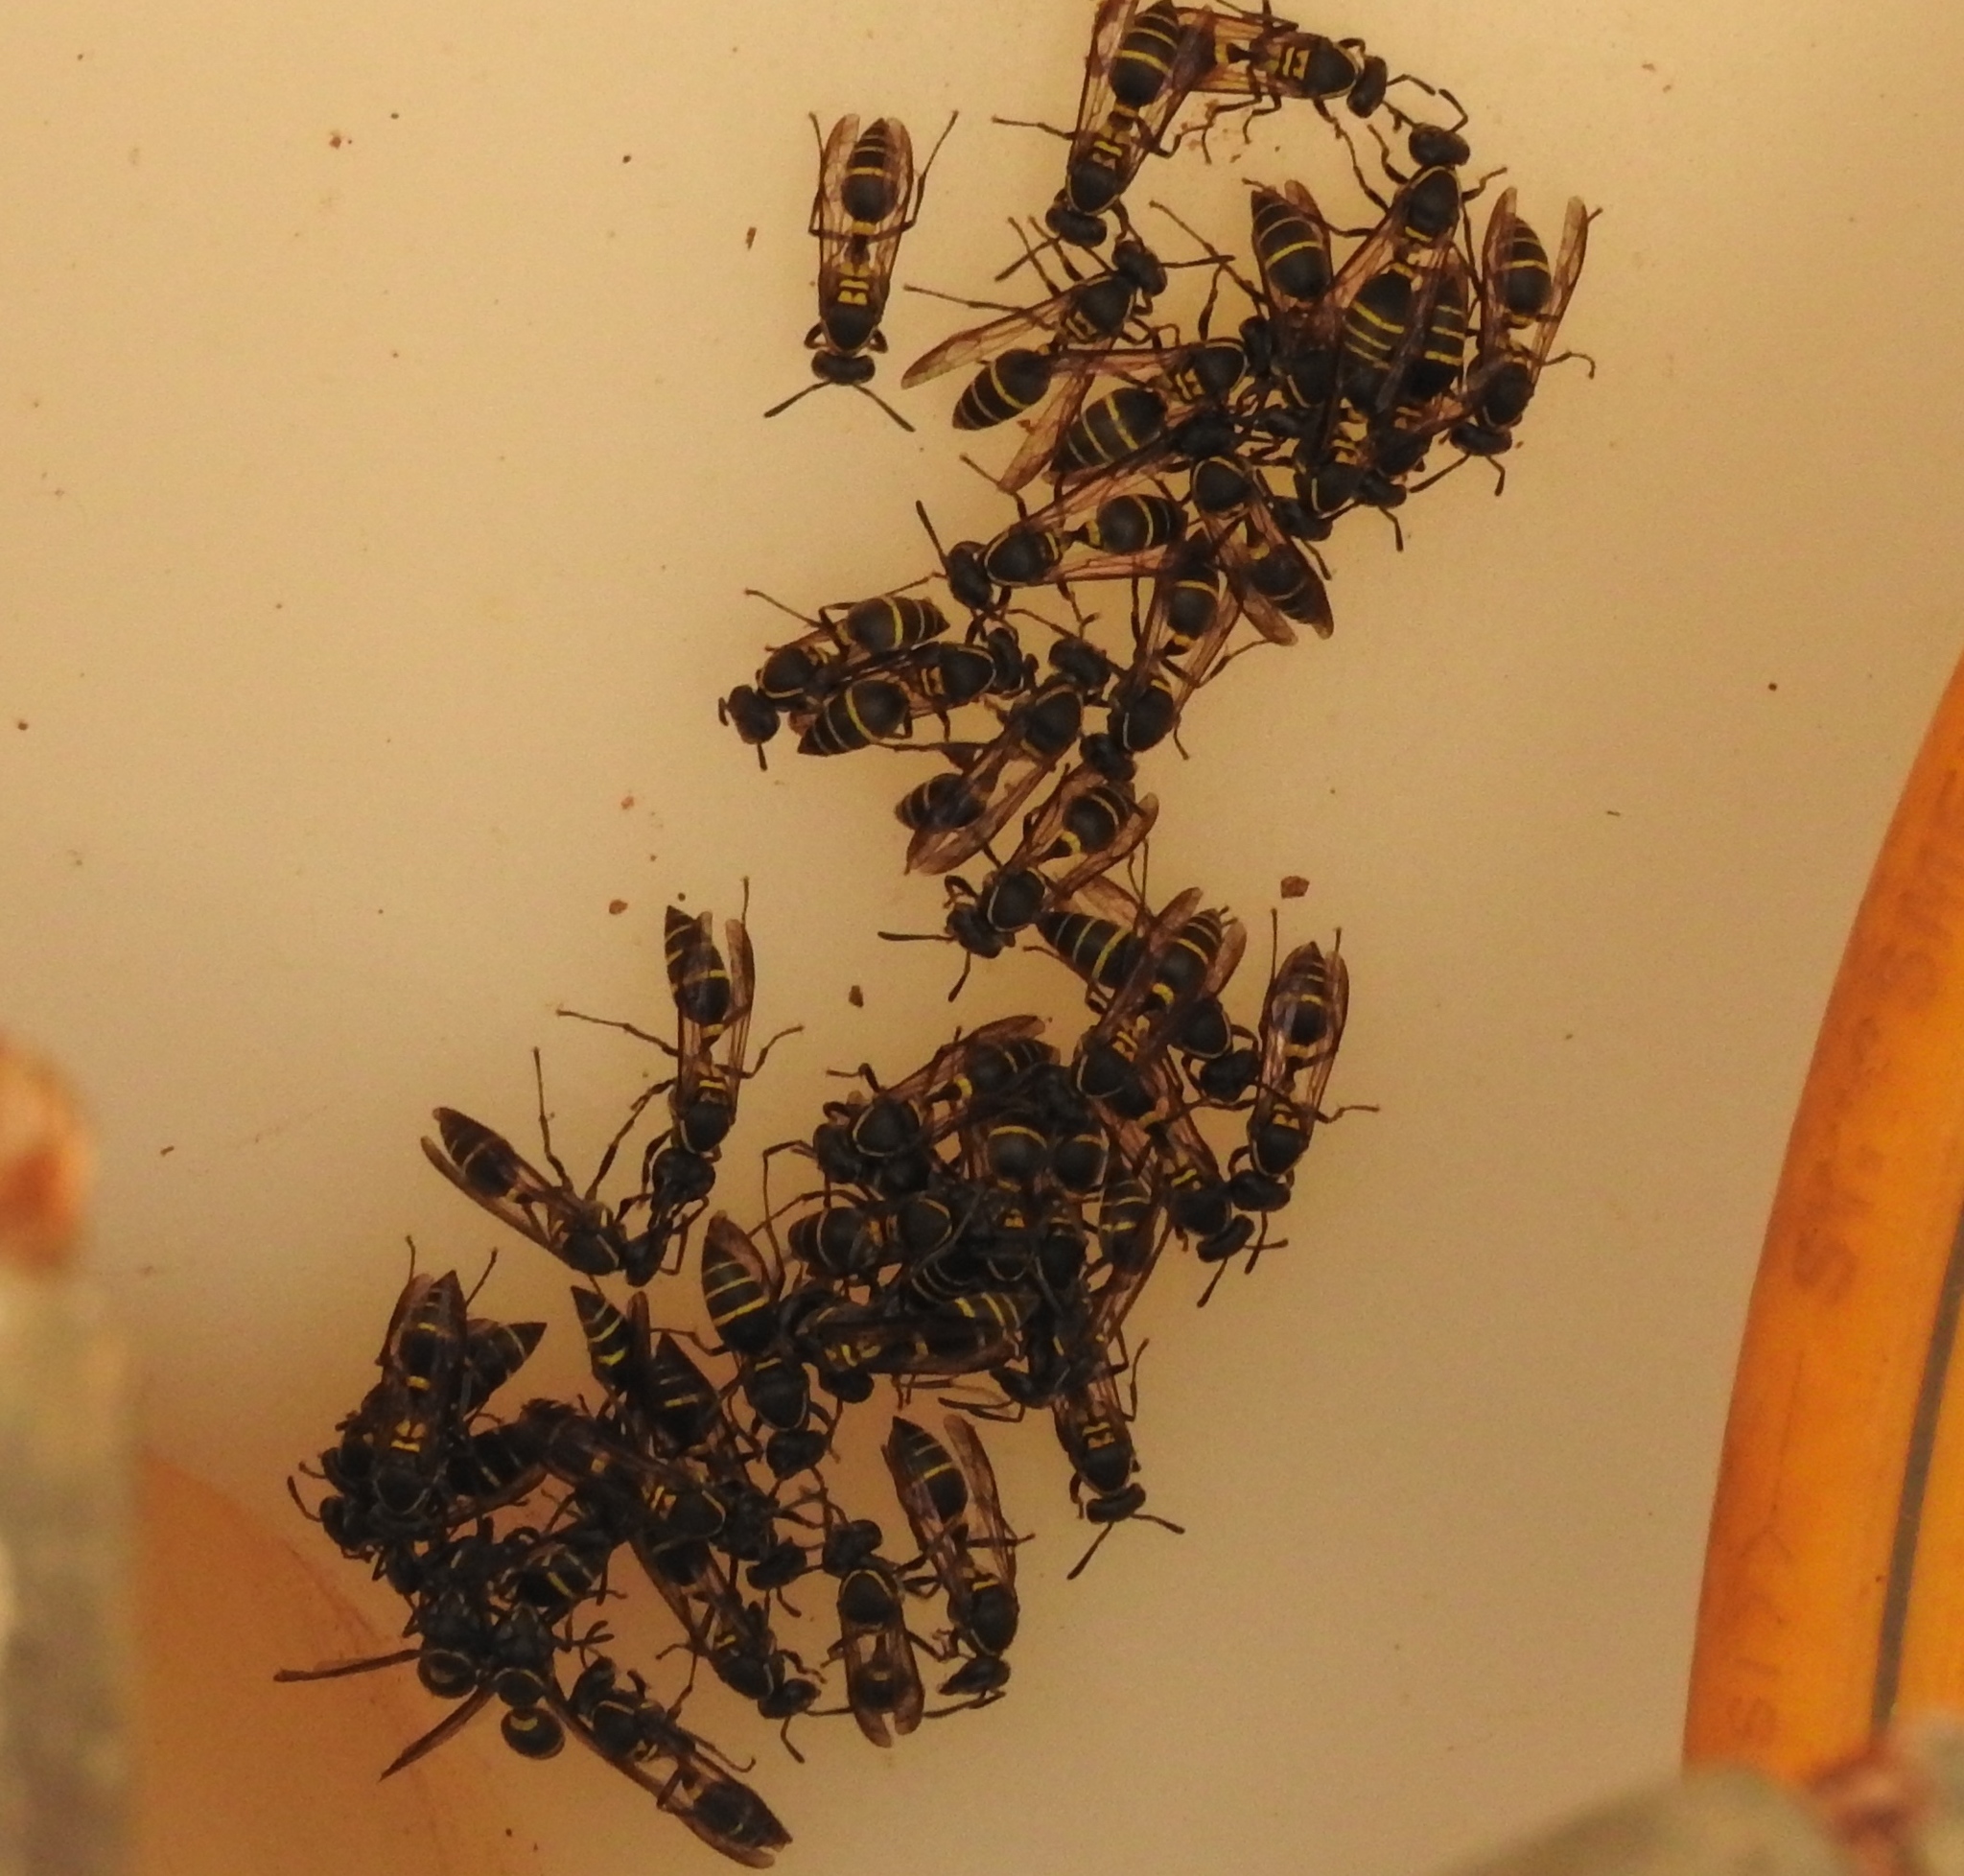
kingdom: Animalia
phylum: Arthropoda
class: Insecta
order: Hymenoptera
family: Vespidae
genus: Myrapetra
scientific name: Myrapetra
